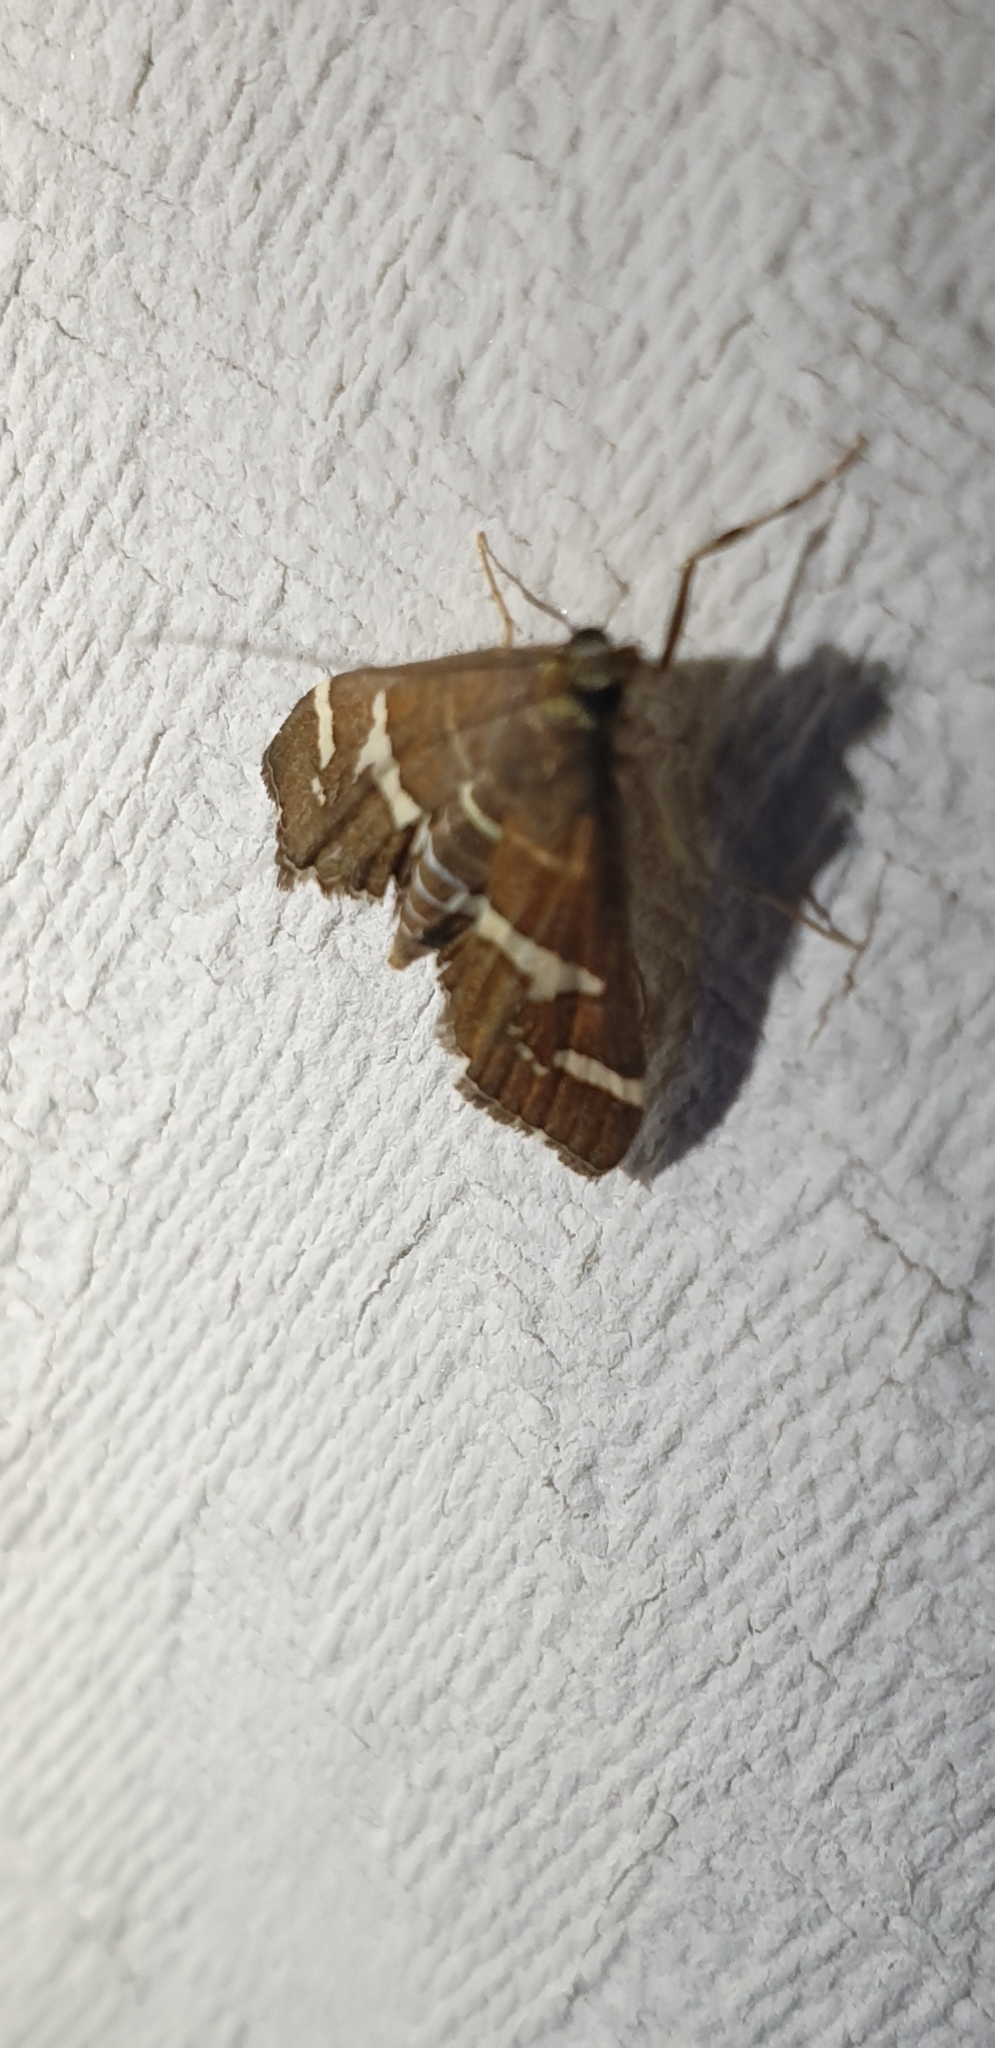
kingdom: Animalia
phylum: Arthropoda
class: Insecta
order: Lepidoptera
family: Crambidae
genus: Spoladea
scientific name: Spoladea recurvalis
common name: Beet webworm moth
